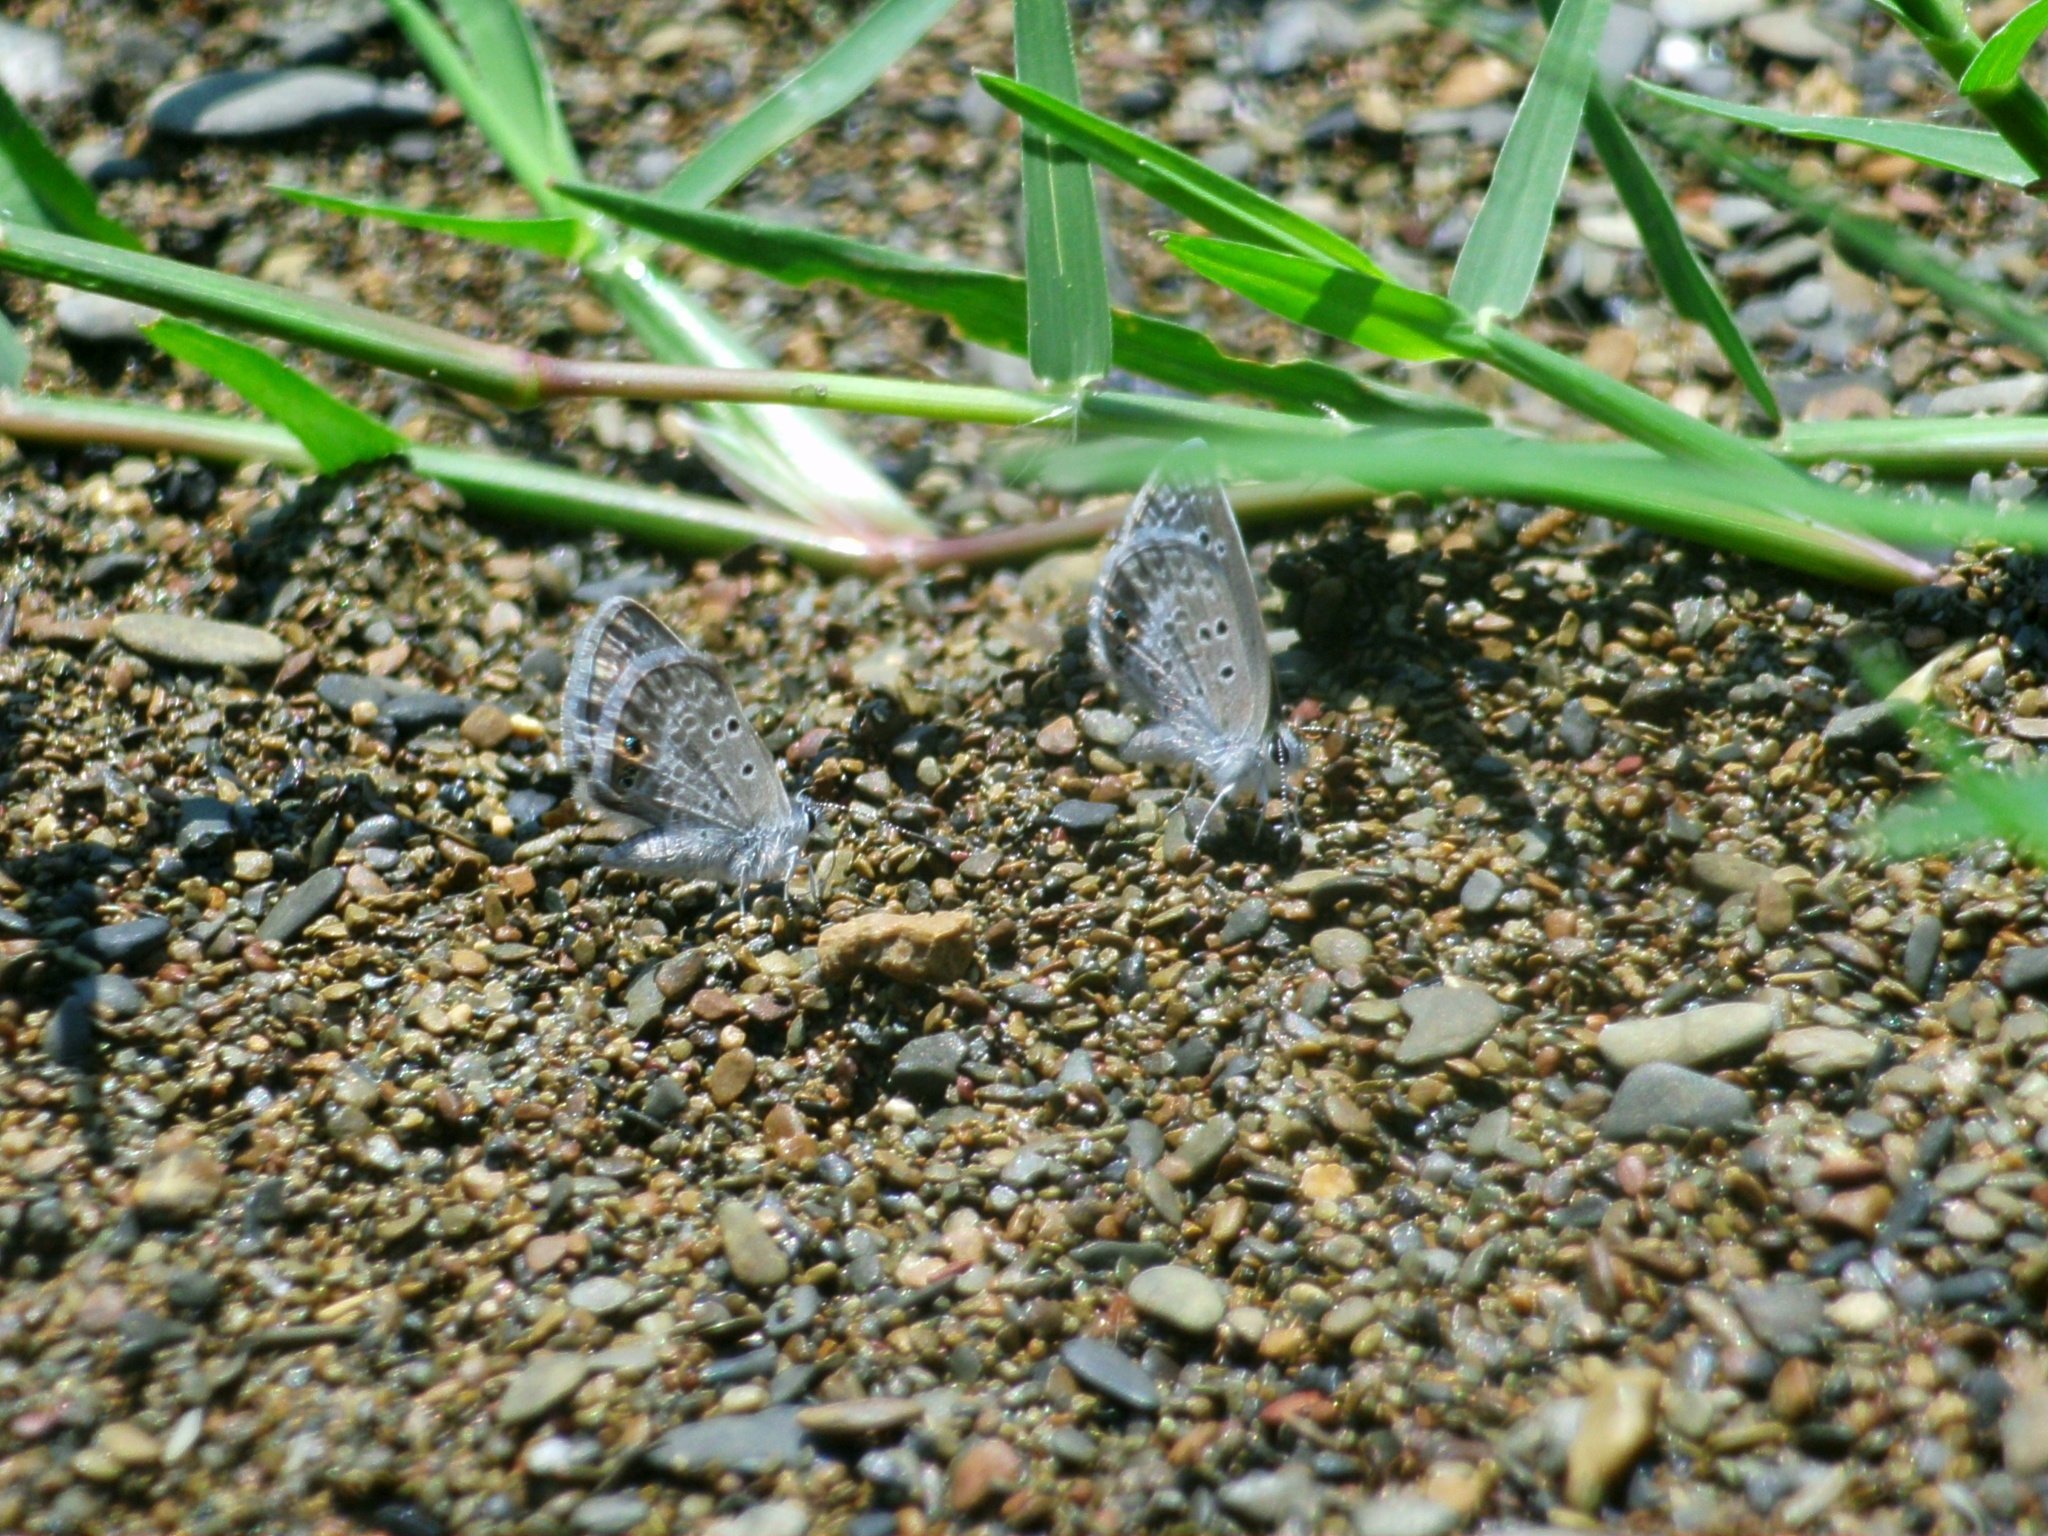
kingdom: Animalia
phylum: Arthropoda
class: Insecta
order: Lepidoptera
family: Lycaenidae
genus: Echinargus
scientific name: Echinargus isola
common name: Reakirt's blue
